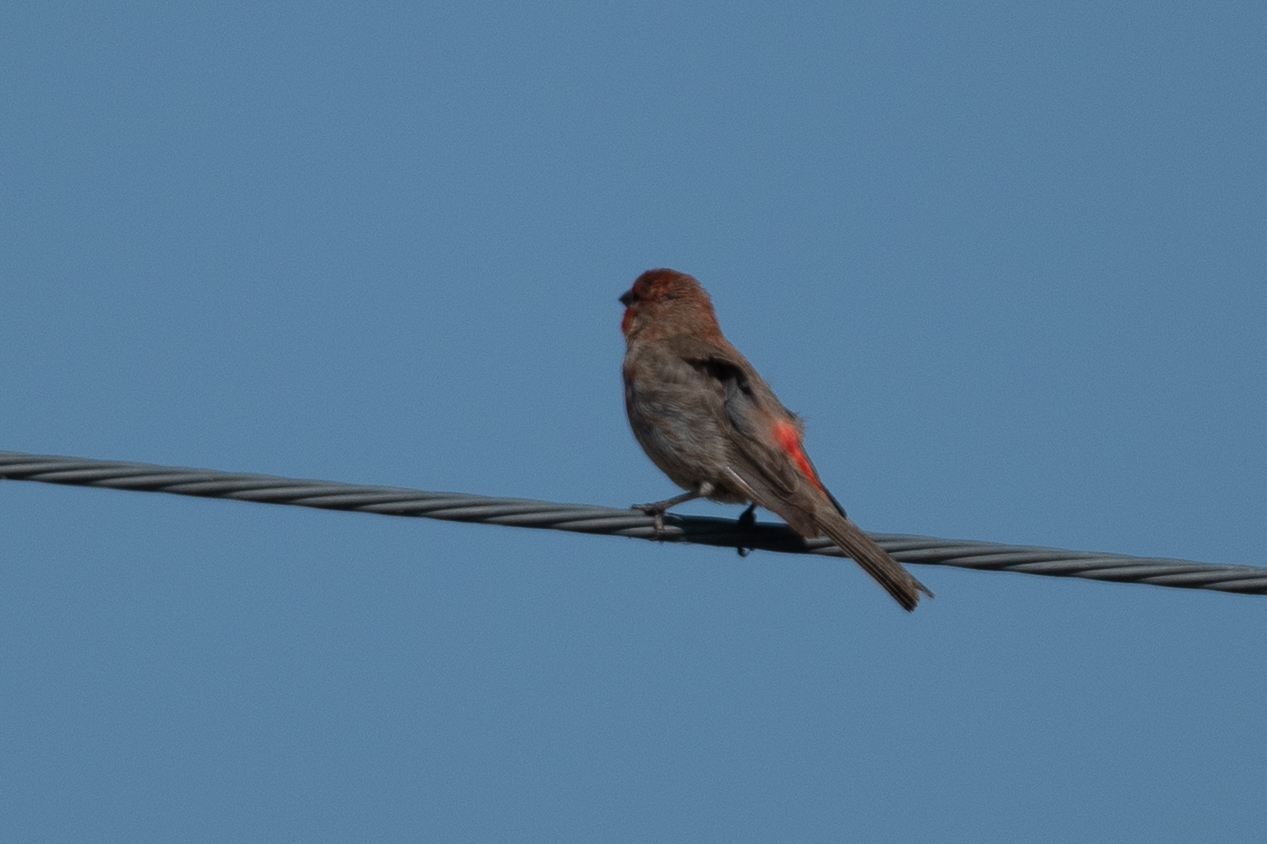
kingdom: Animalia
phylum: Chordata
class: Aves
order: Passeriformes
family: Fringillidae
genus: Haemorhous
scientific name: Haemorhous mexicanus
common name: House finch
